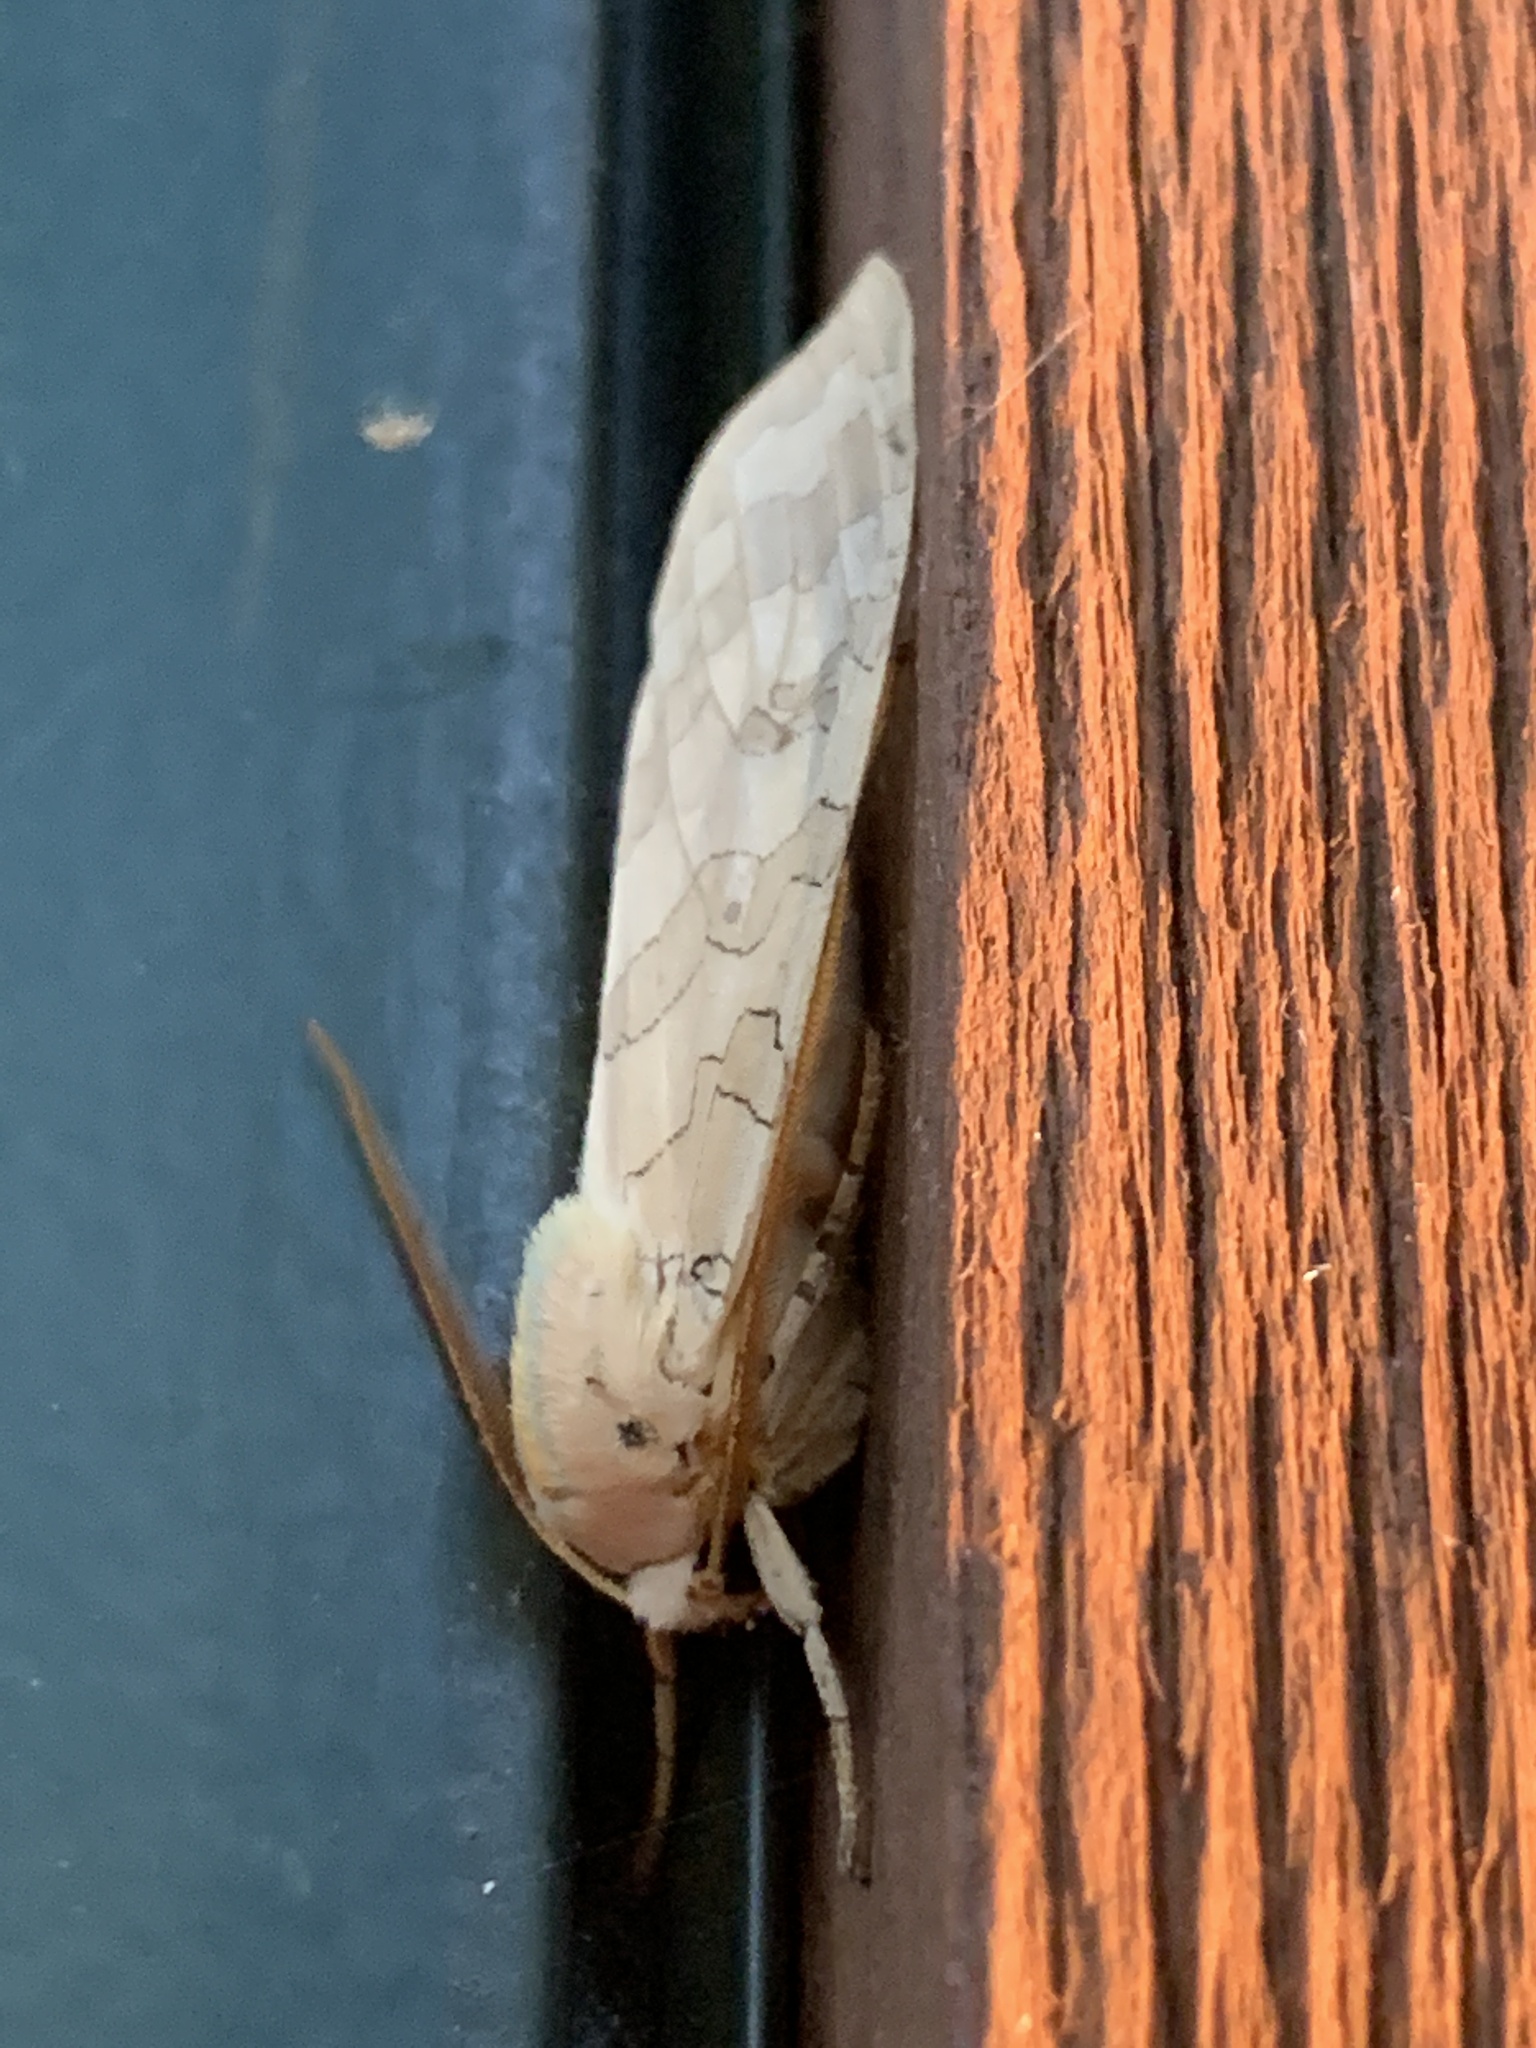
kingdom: Animalia
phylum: Arthropoda
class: Insecta
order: Lepidoptera
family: Erebidae
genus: Halysidota
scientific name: Halysidota
